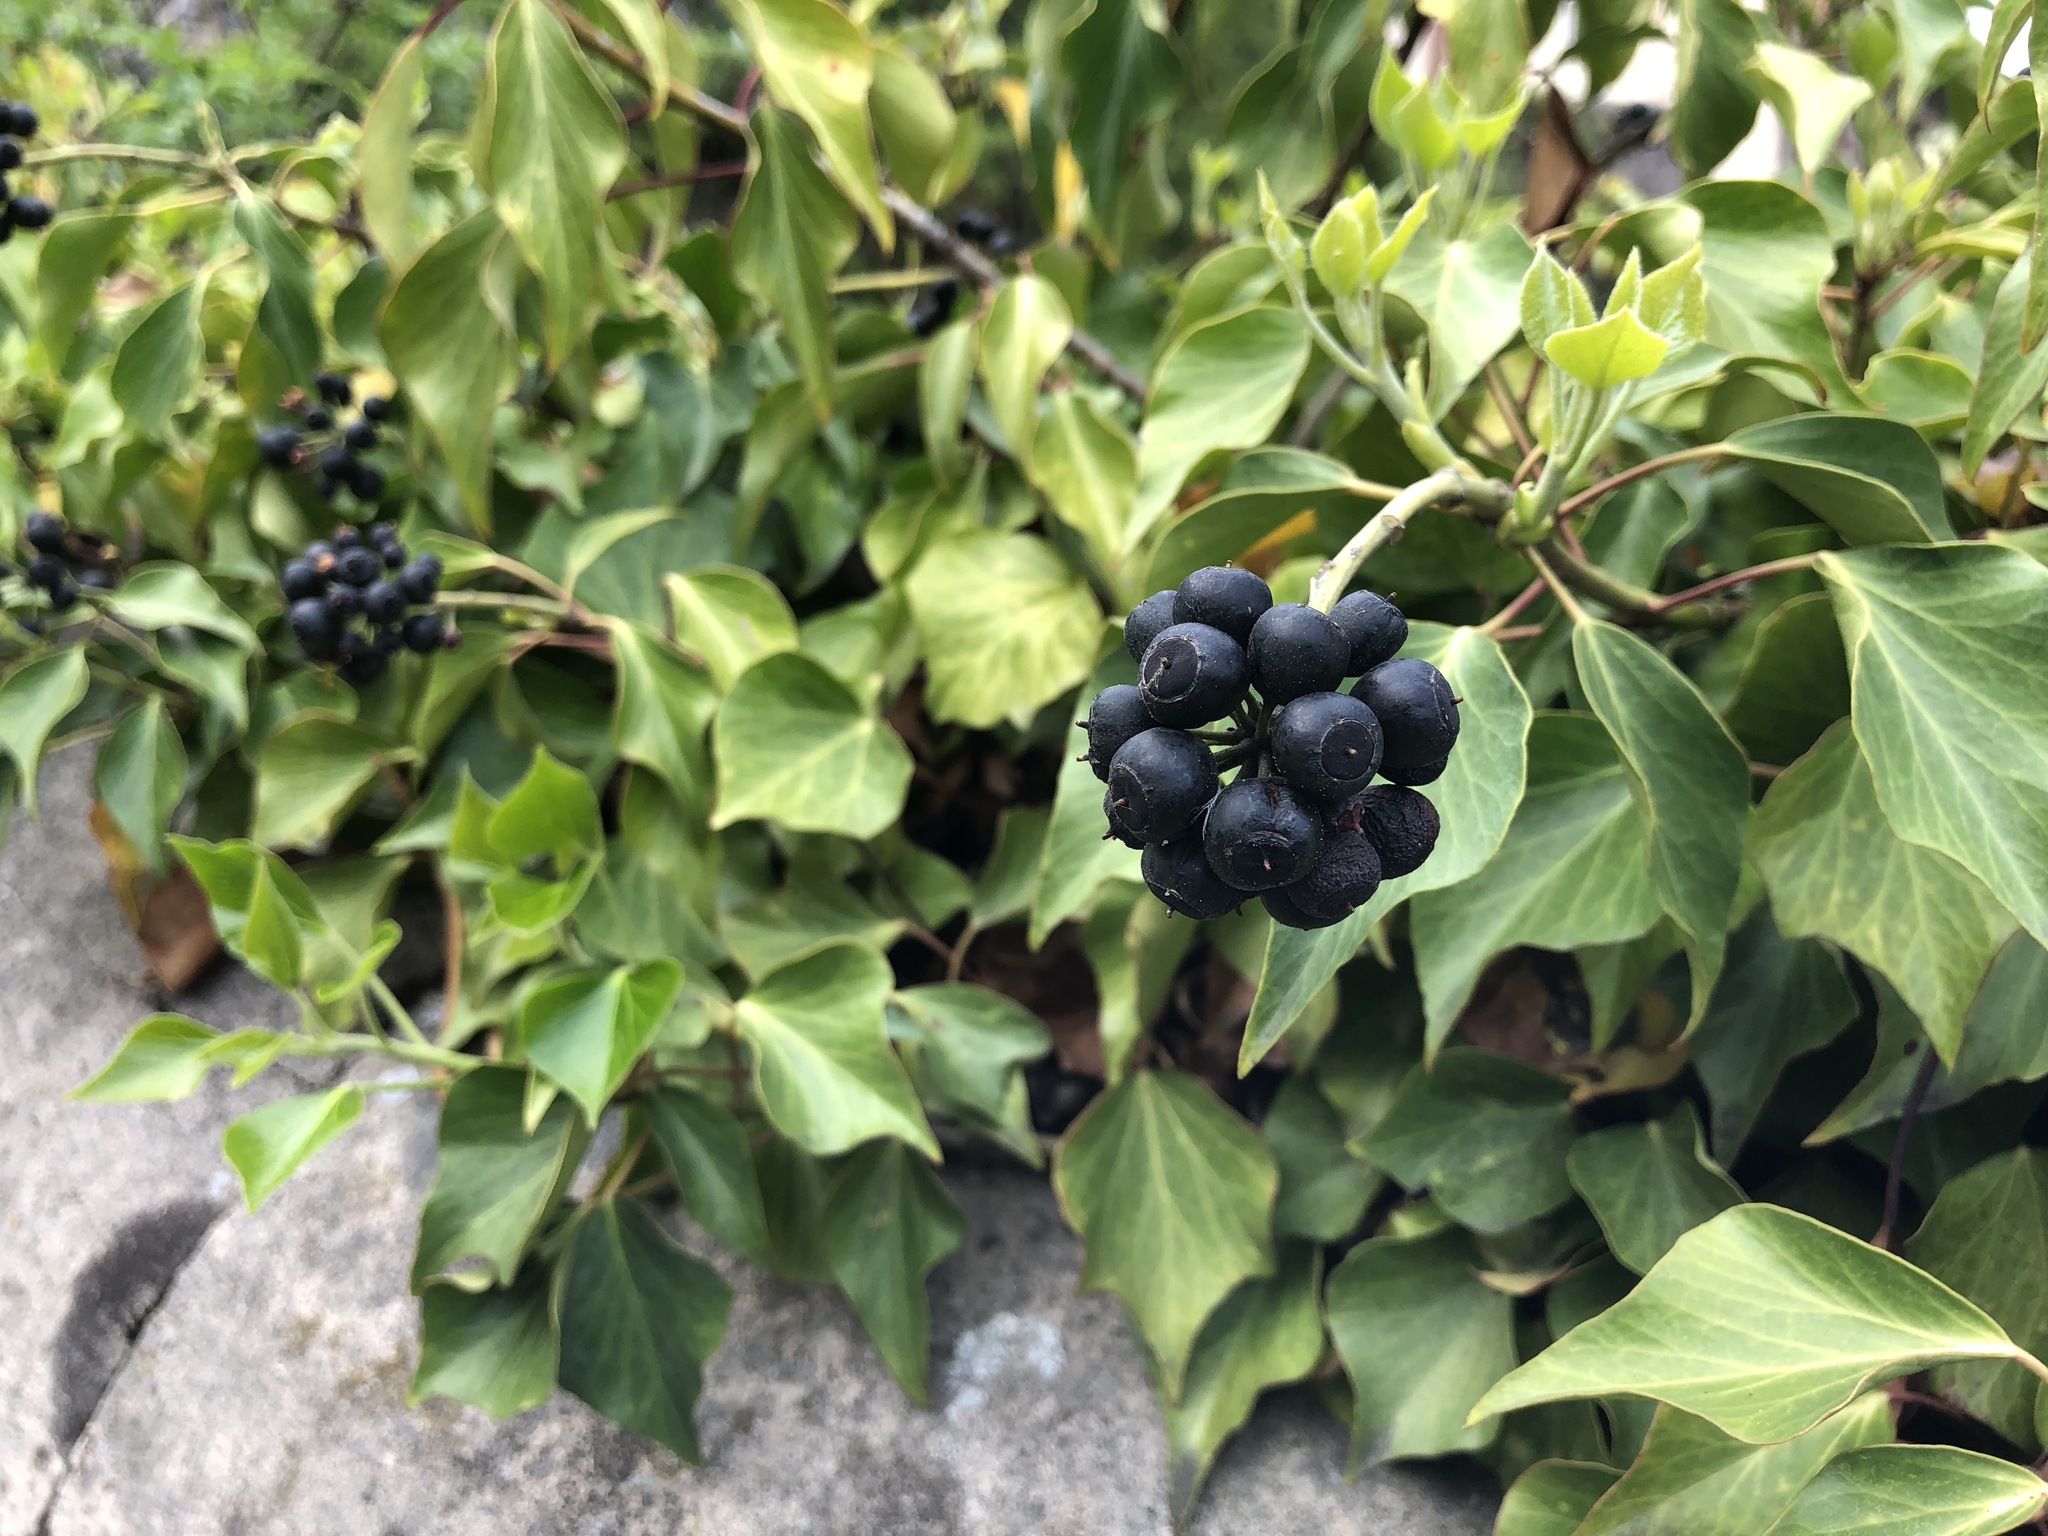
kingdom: Plantae
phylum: Tracheophyta
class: Magnoliopsida
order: Apiales
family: Araliaceae
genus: Hedera
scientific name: Hedera helix
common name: Ivy
